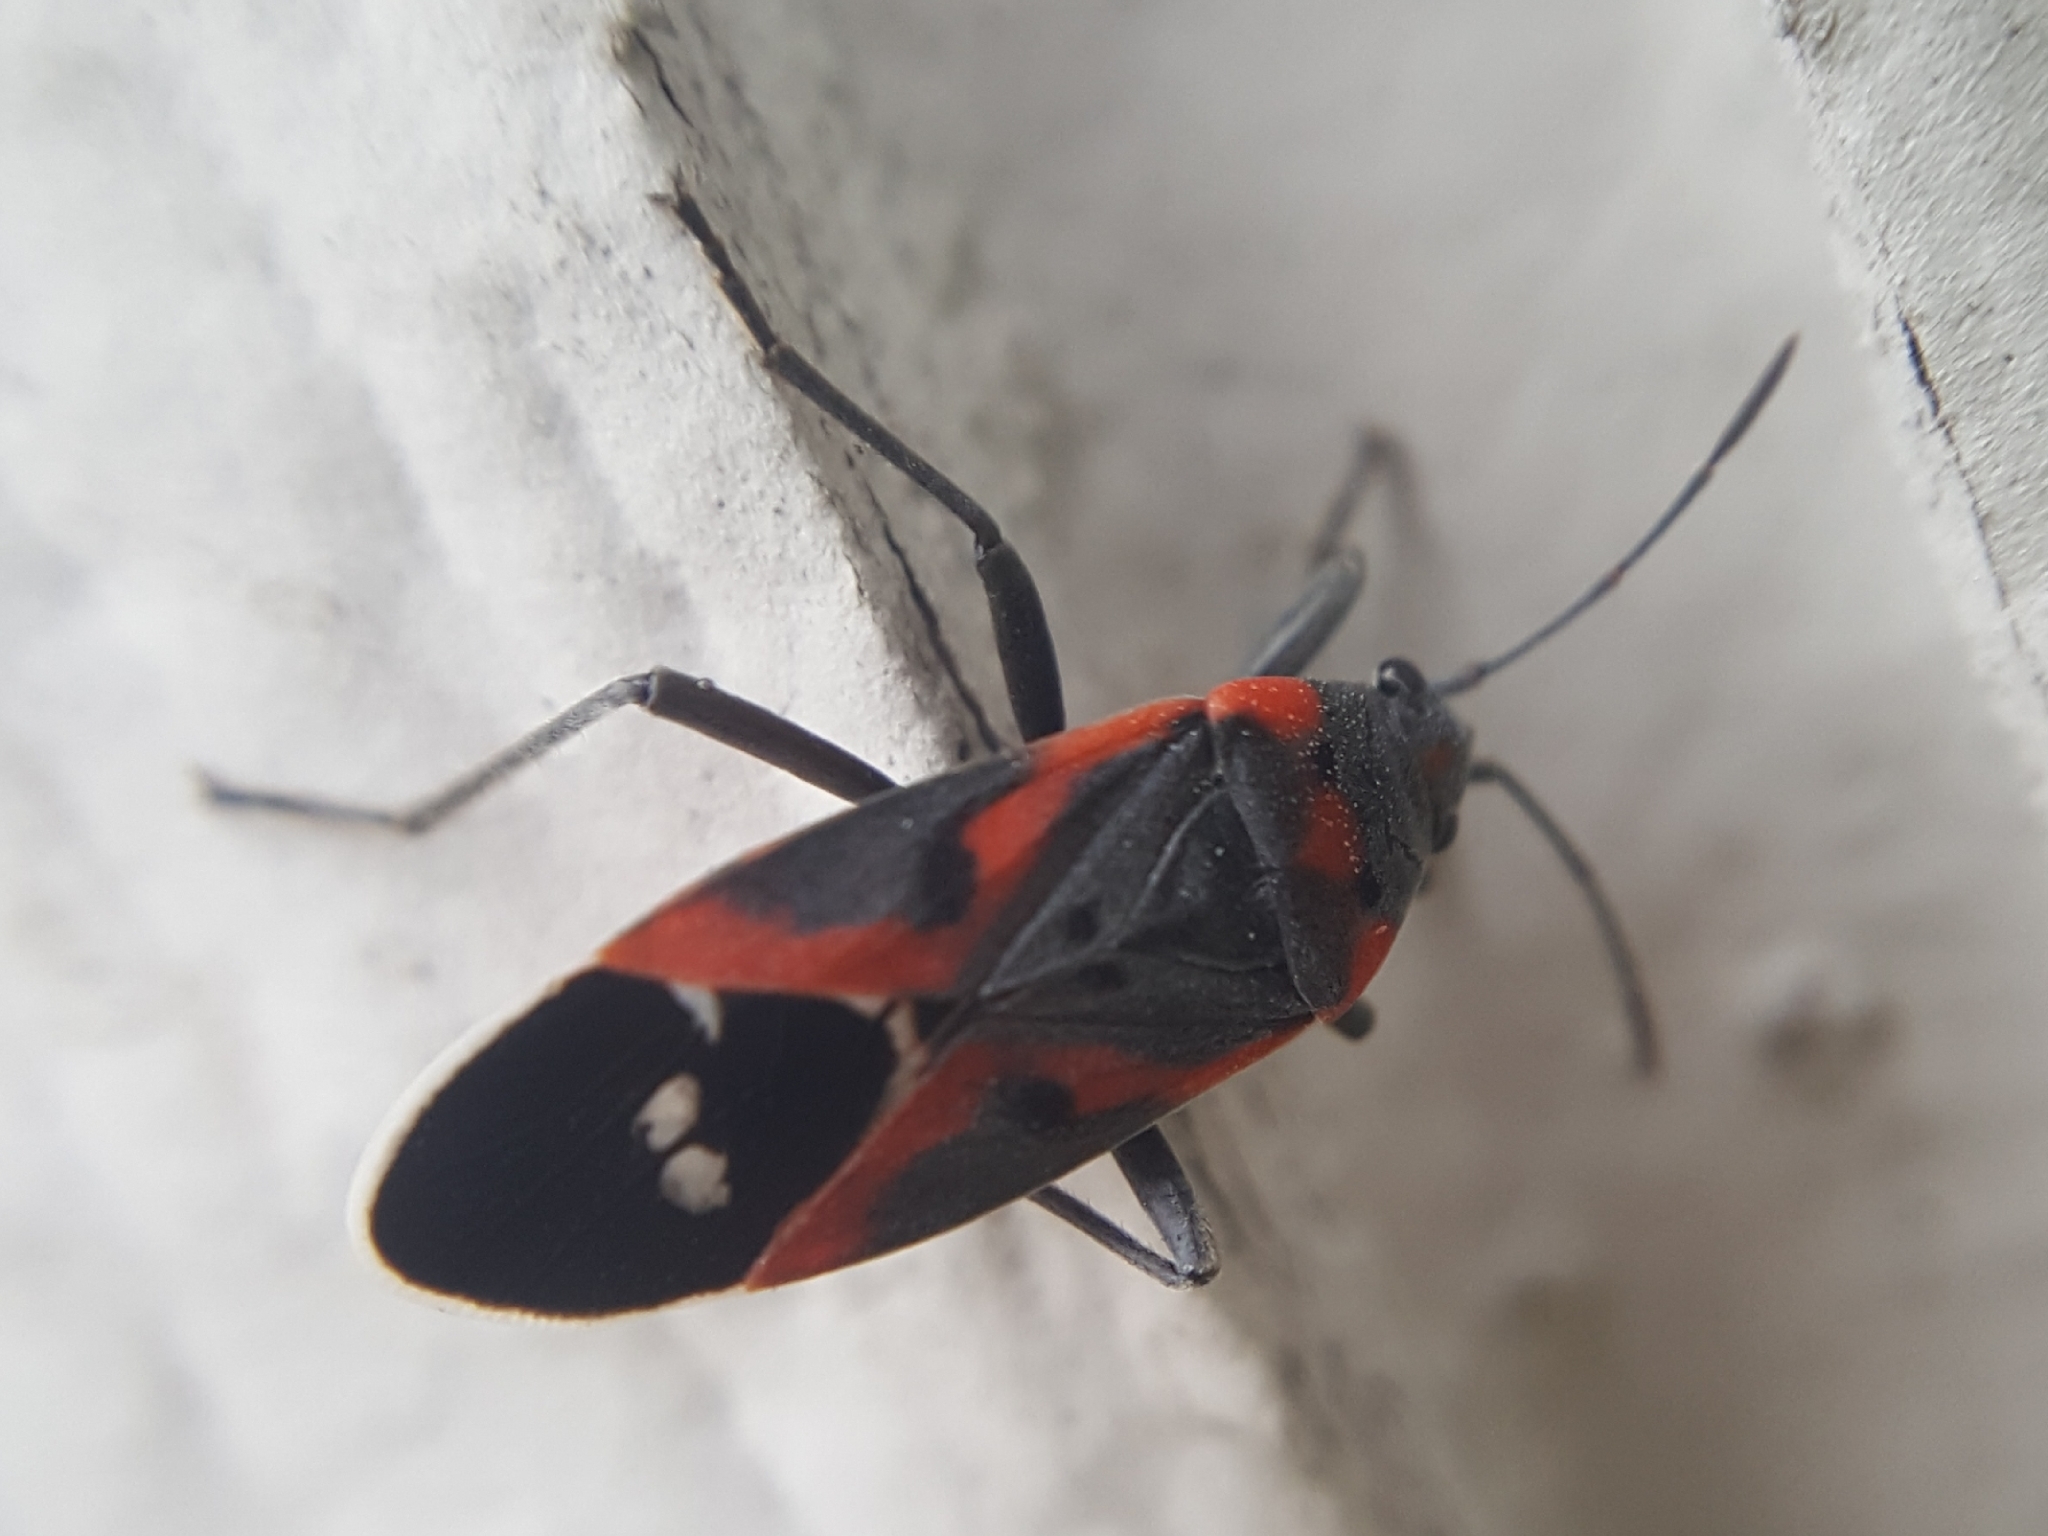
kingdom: Animalia
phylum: Arthropoda
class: Insecta
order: Hemiptera
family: Lygaeidae
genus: Lygaeus
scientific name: Lygaeus kalmii
